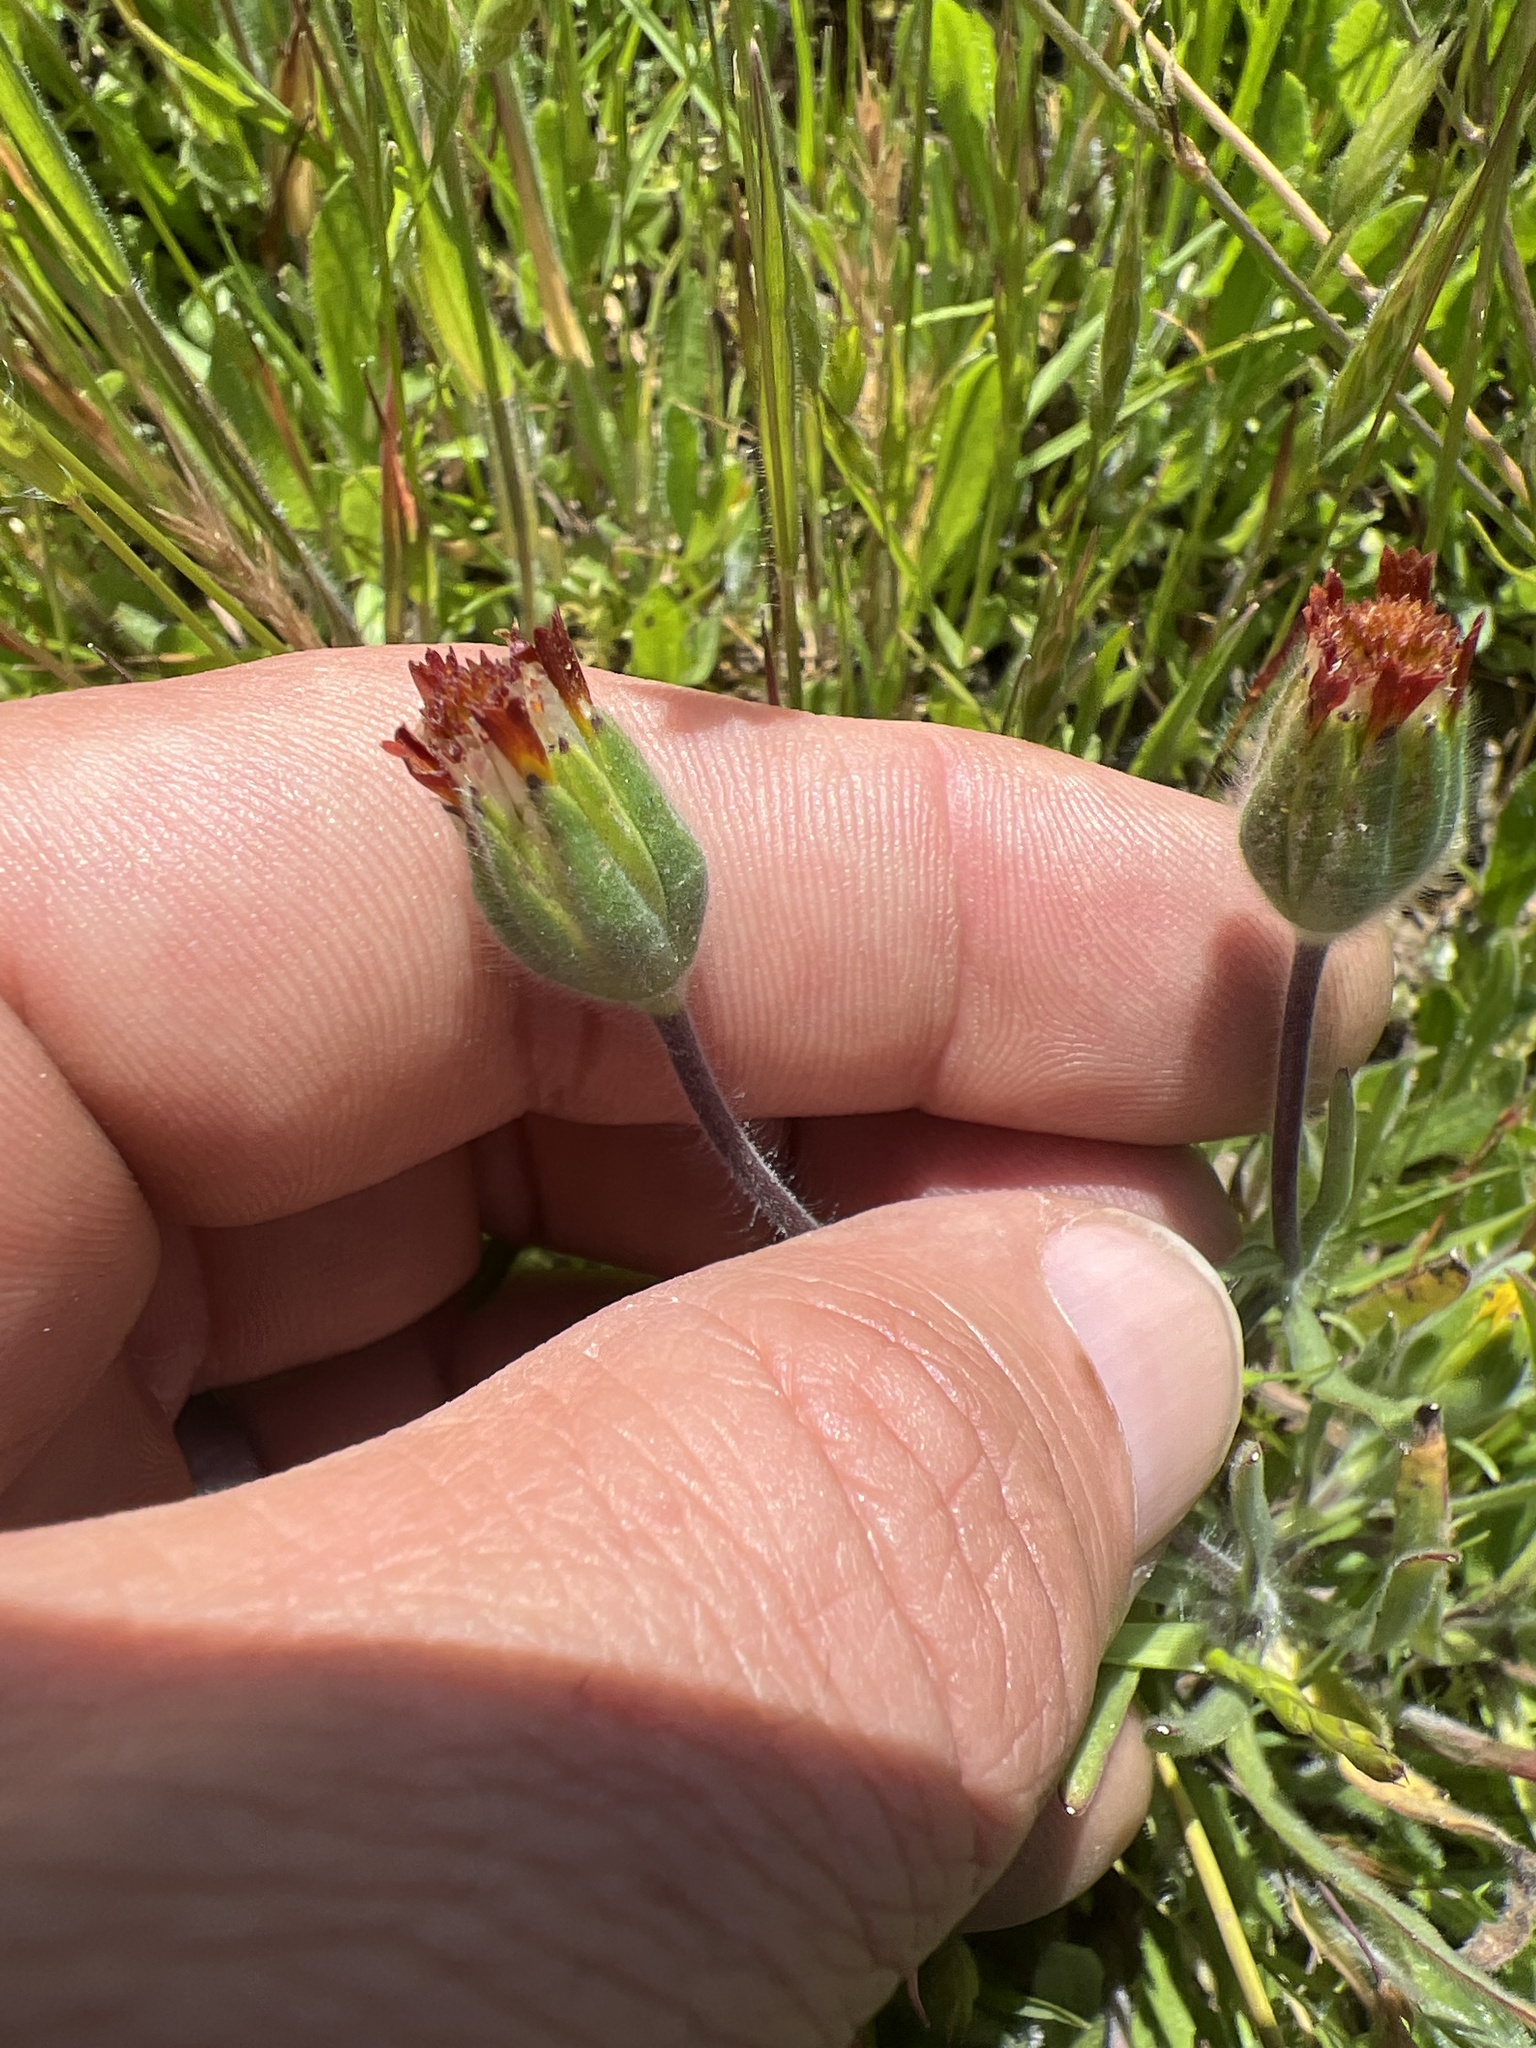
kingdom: Plantae
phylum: Tracheophyta
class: Magnoliopsida
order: Asterales
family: Asteraceae
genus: Achyrachaena
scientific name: Achyrachaena mollis
